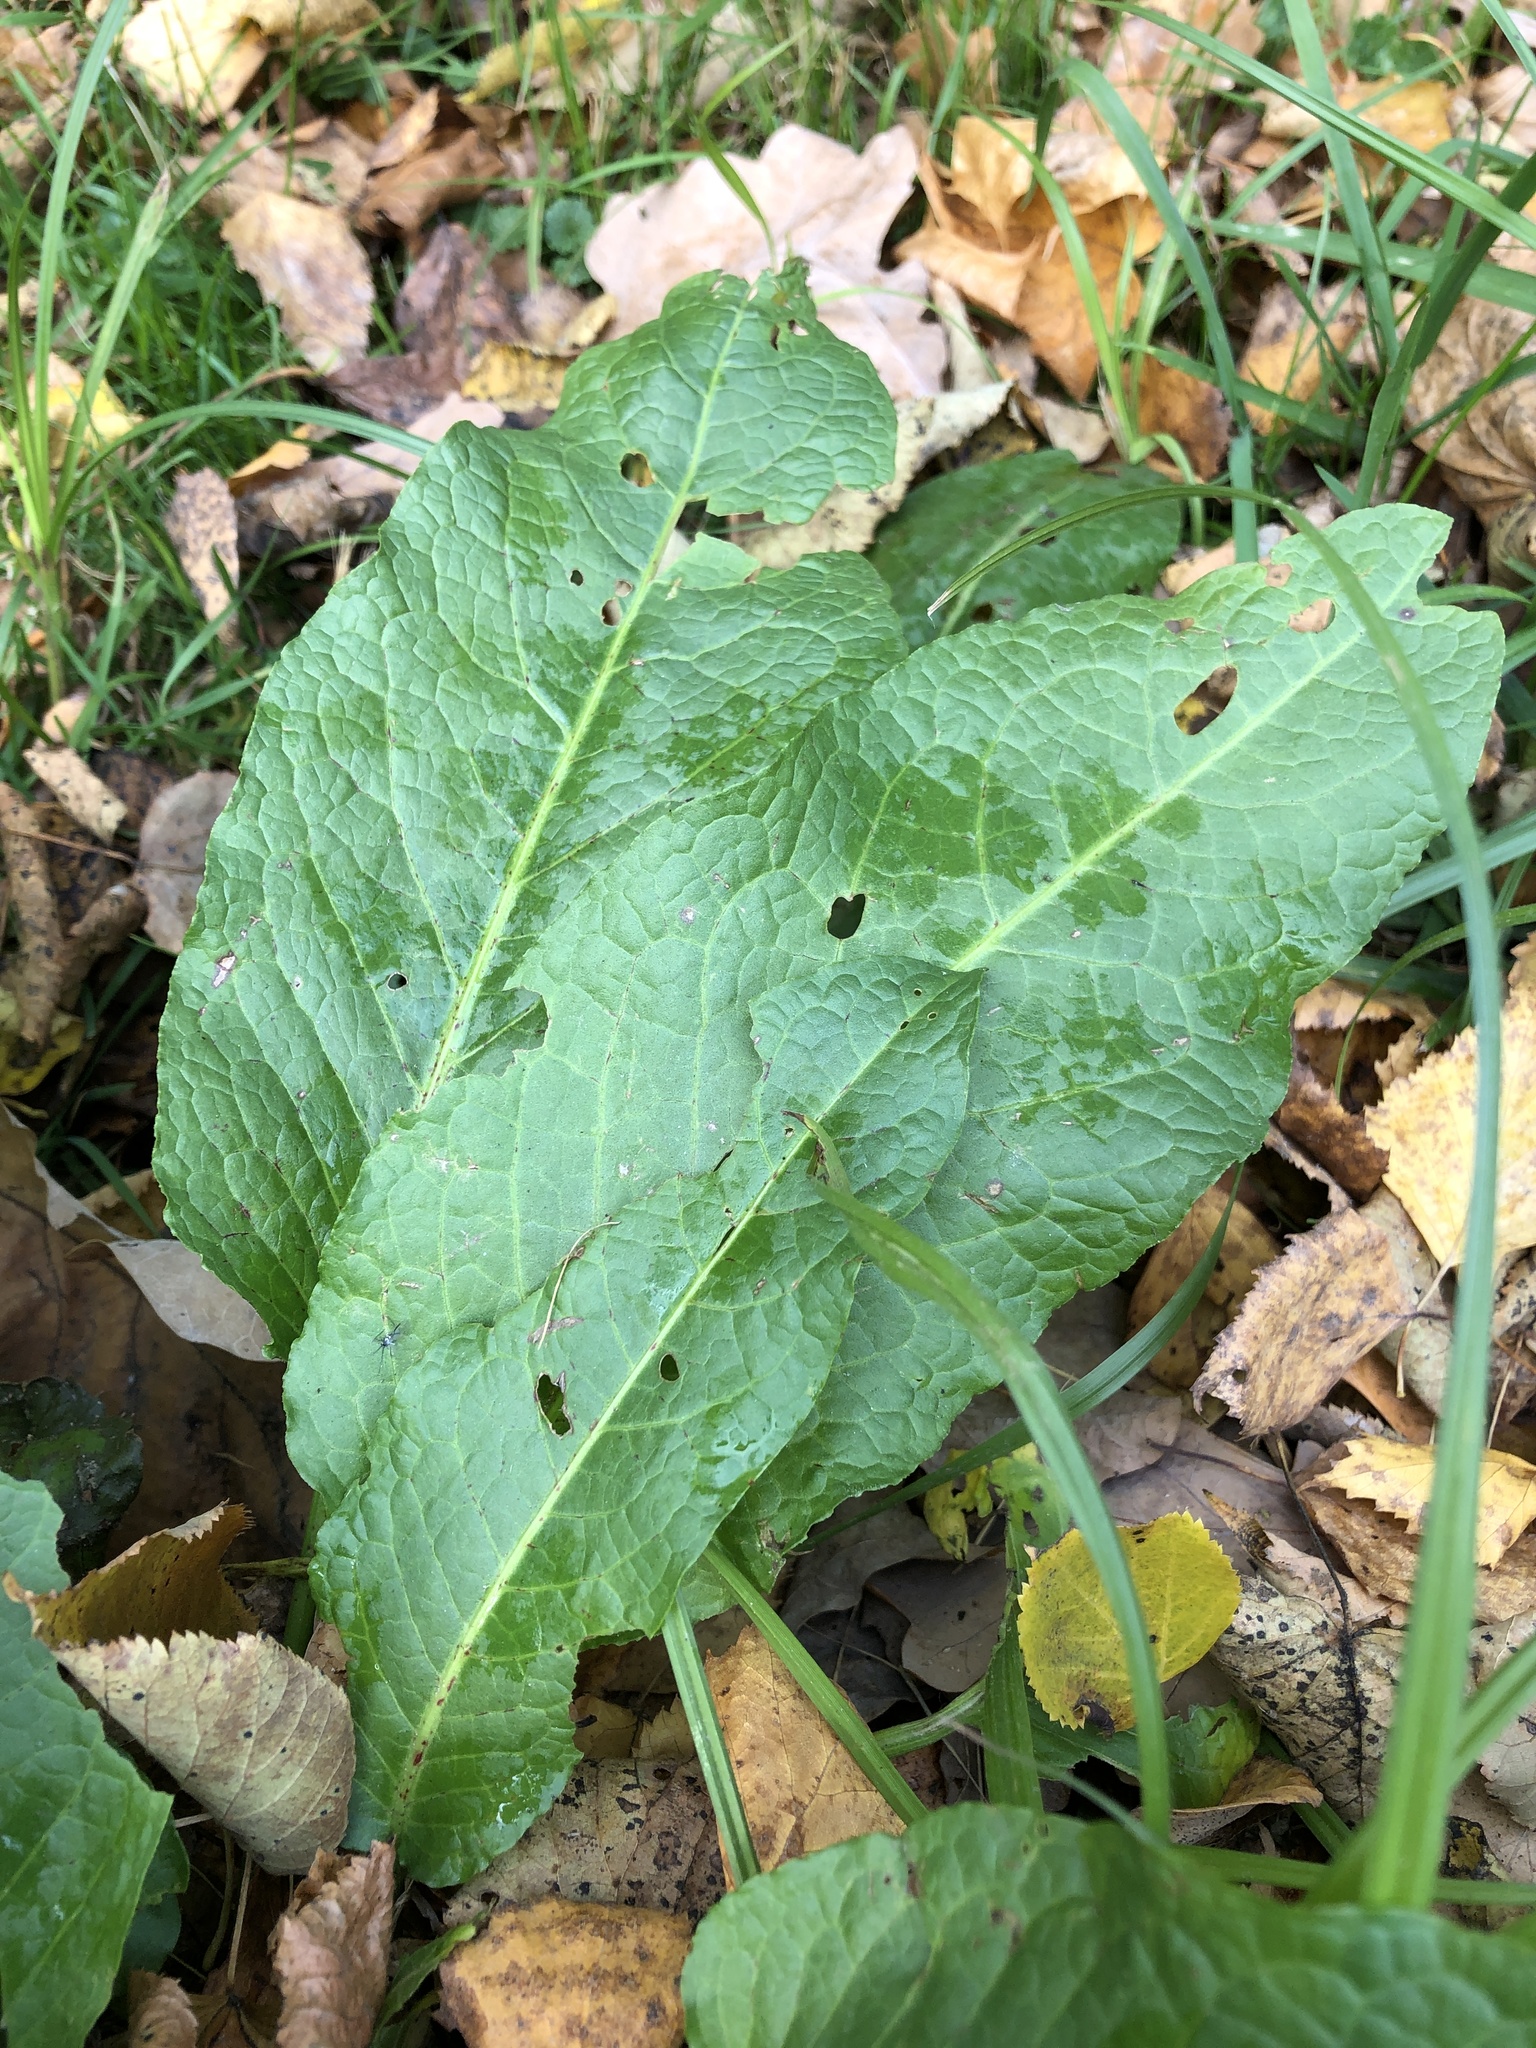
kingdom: Plantae
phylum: Tracheophyta
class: Magnoliopsida
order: Caryophyllales
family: Polygonaceae
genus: Rumex
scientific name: Rumex obtusifolius
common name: Bitter dock
